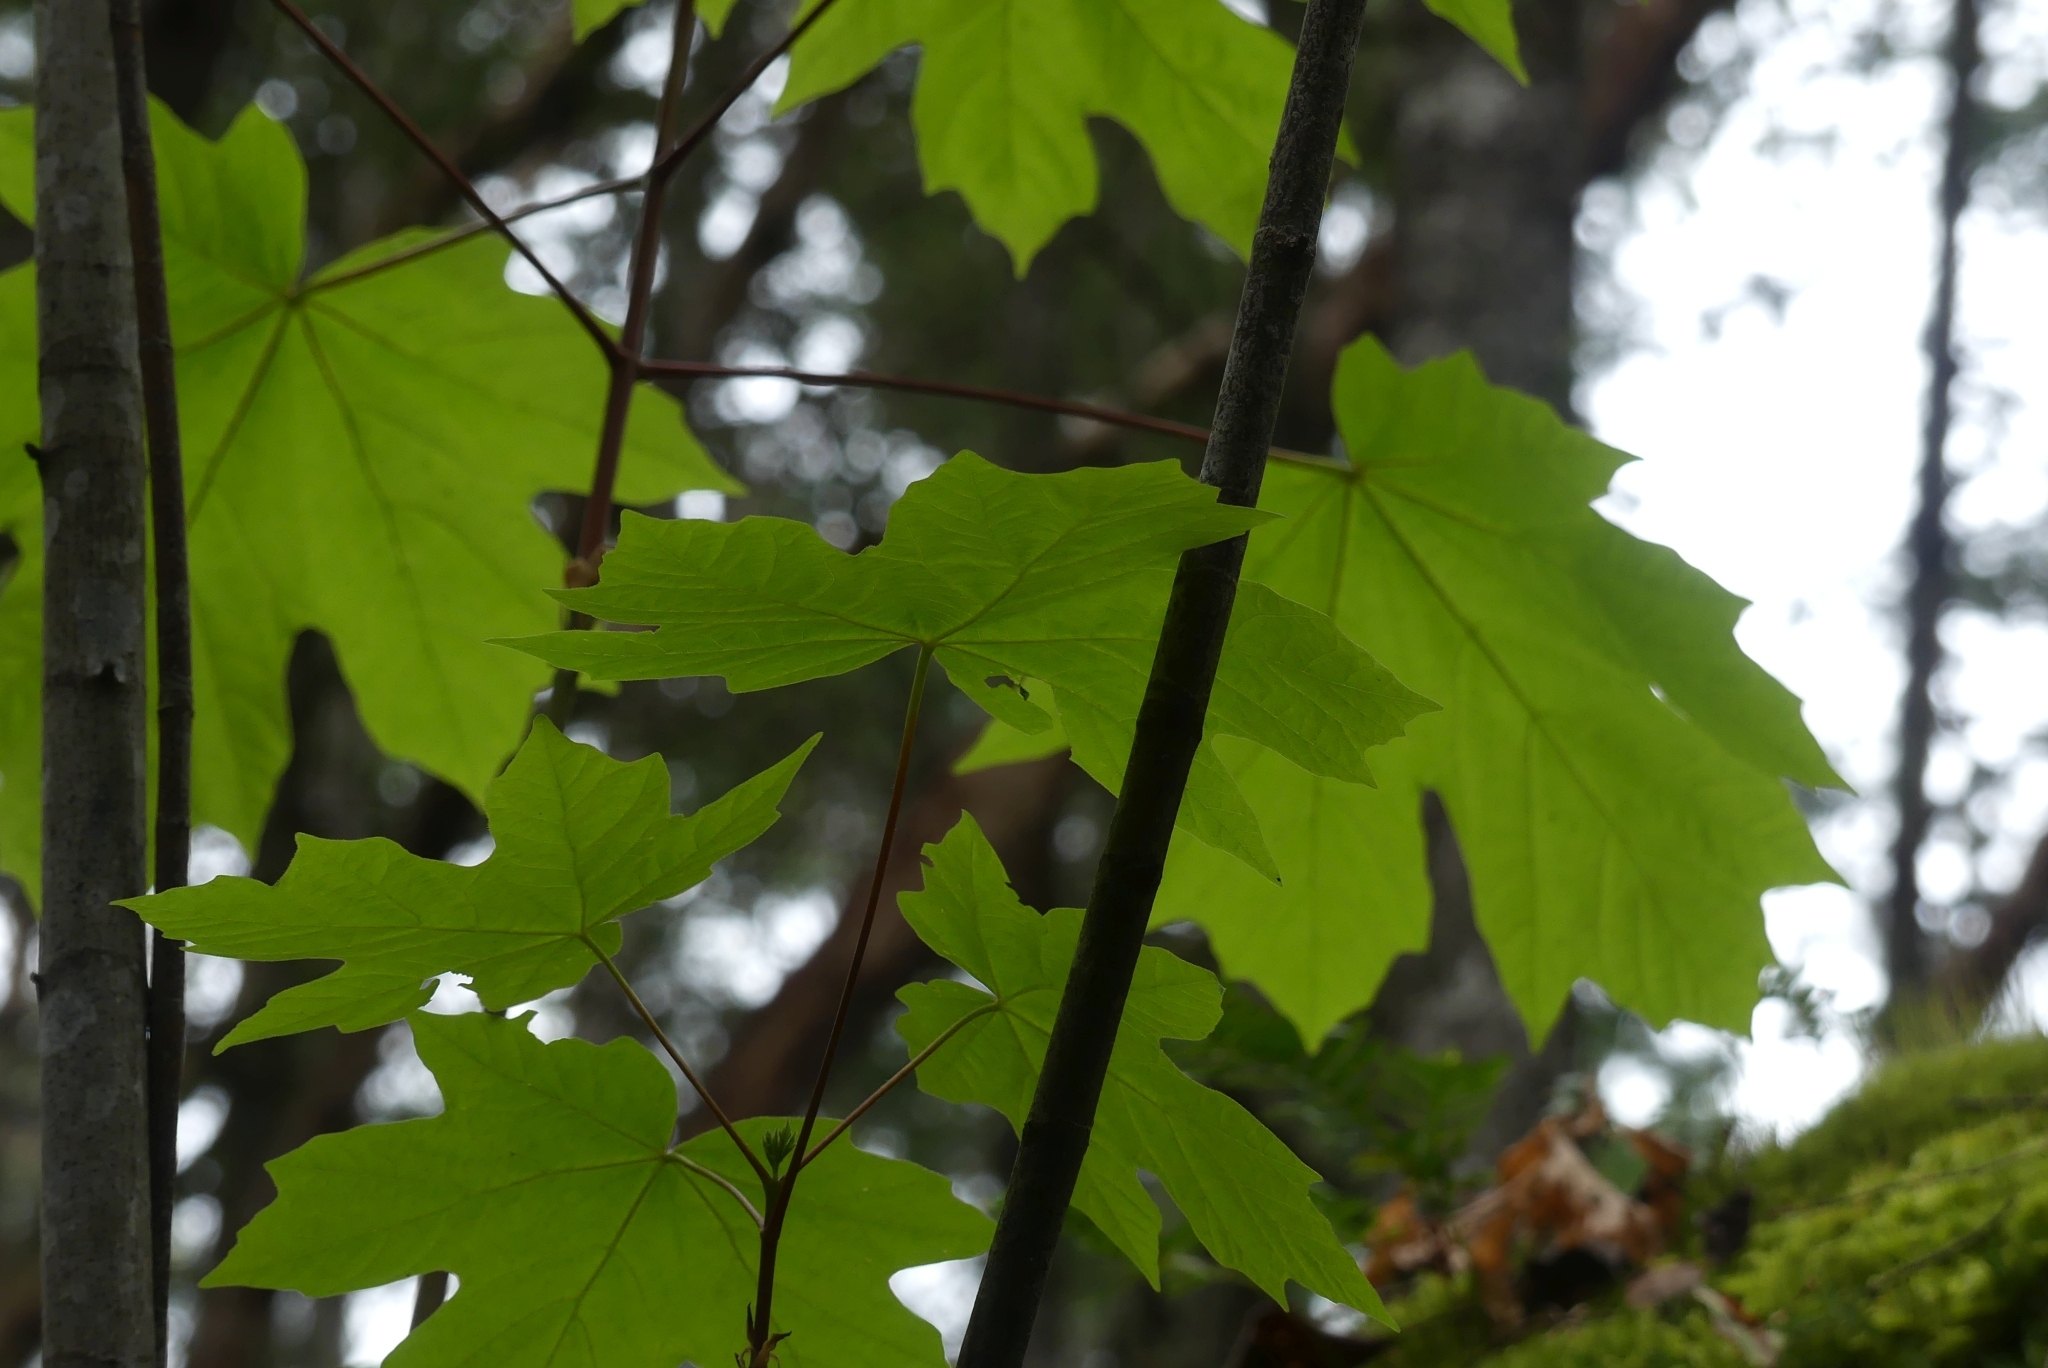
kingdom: Plantae
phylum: Tracheophyta
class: Magnoliopsida
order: Sapindales
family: Sapindaceae
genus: Acer
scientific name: Acer macrophyllum
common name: Oregon maple
